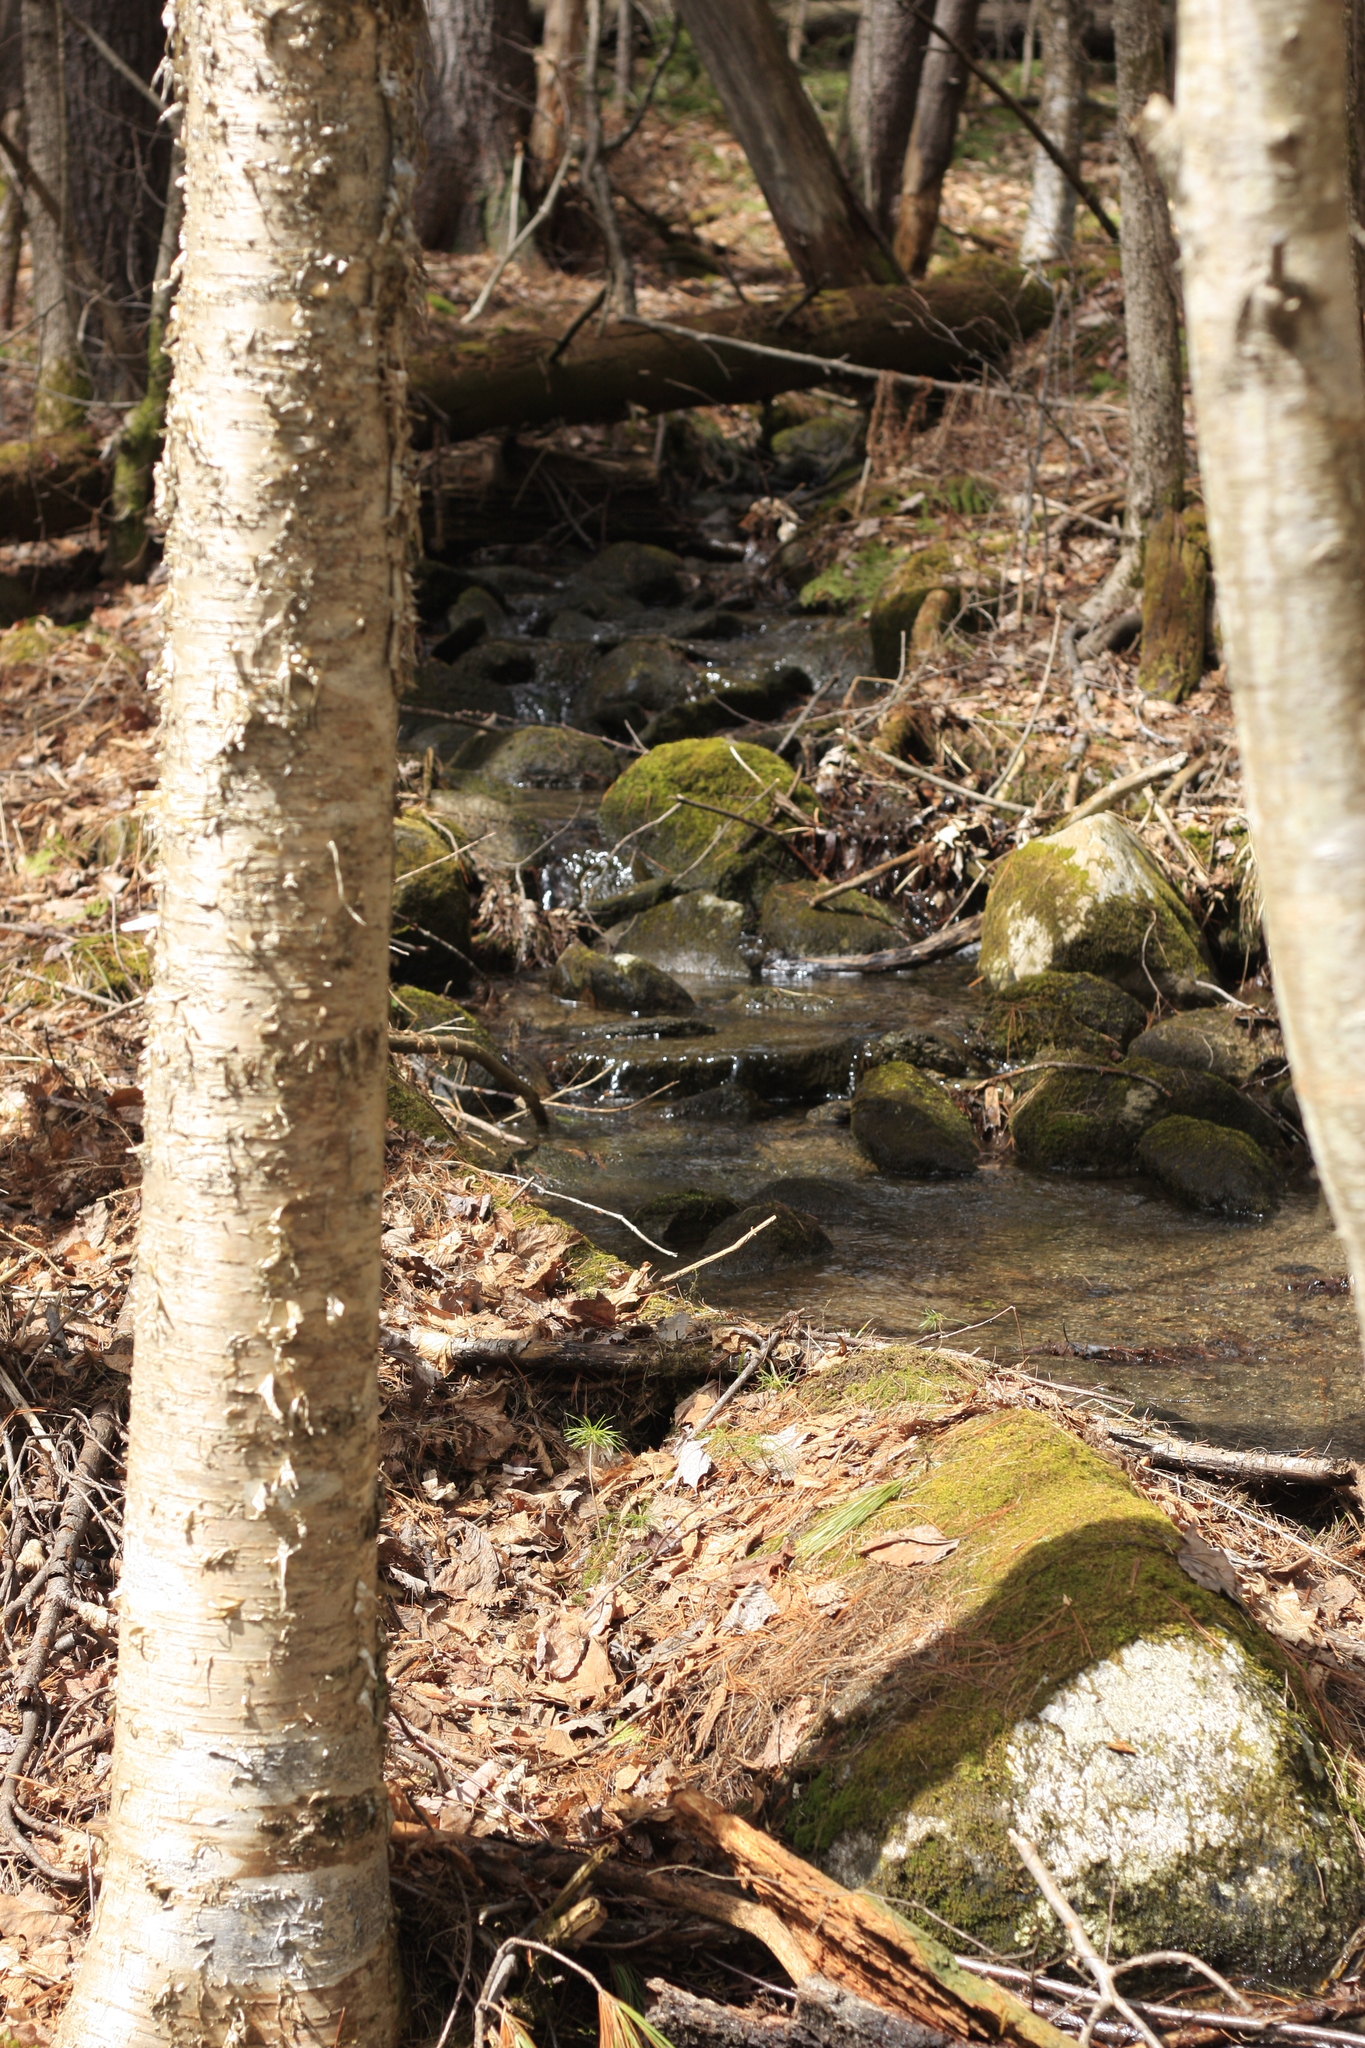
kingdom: Plantae
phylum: Tracheophyta
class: Magnoliopsida
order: Fagales
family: Betulaceae
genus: Betula
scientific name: Betula alleghaniensis
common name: Yellow birch
